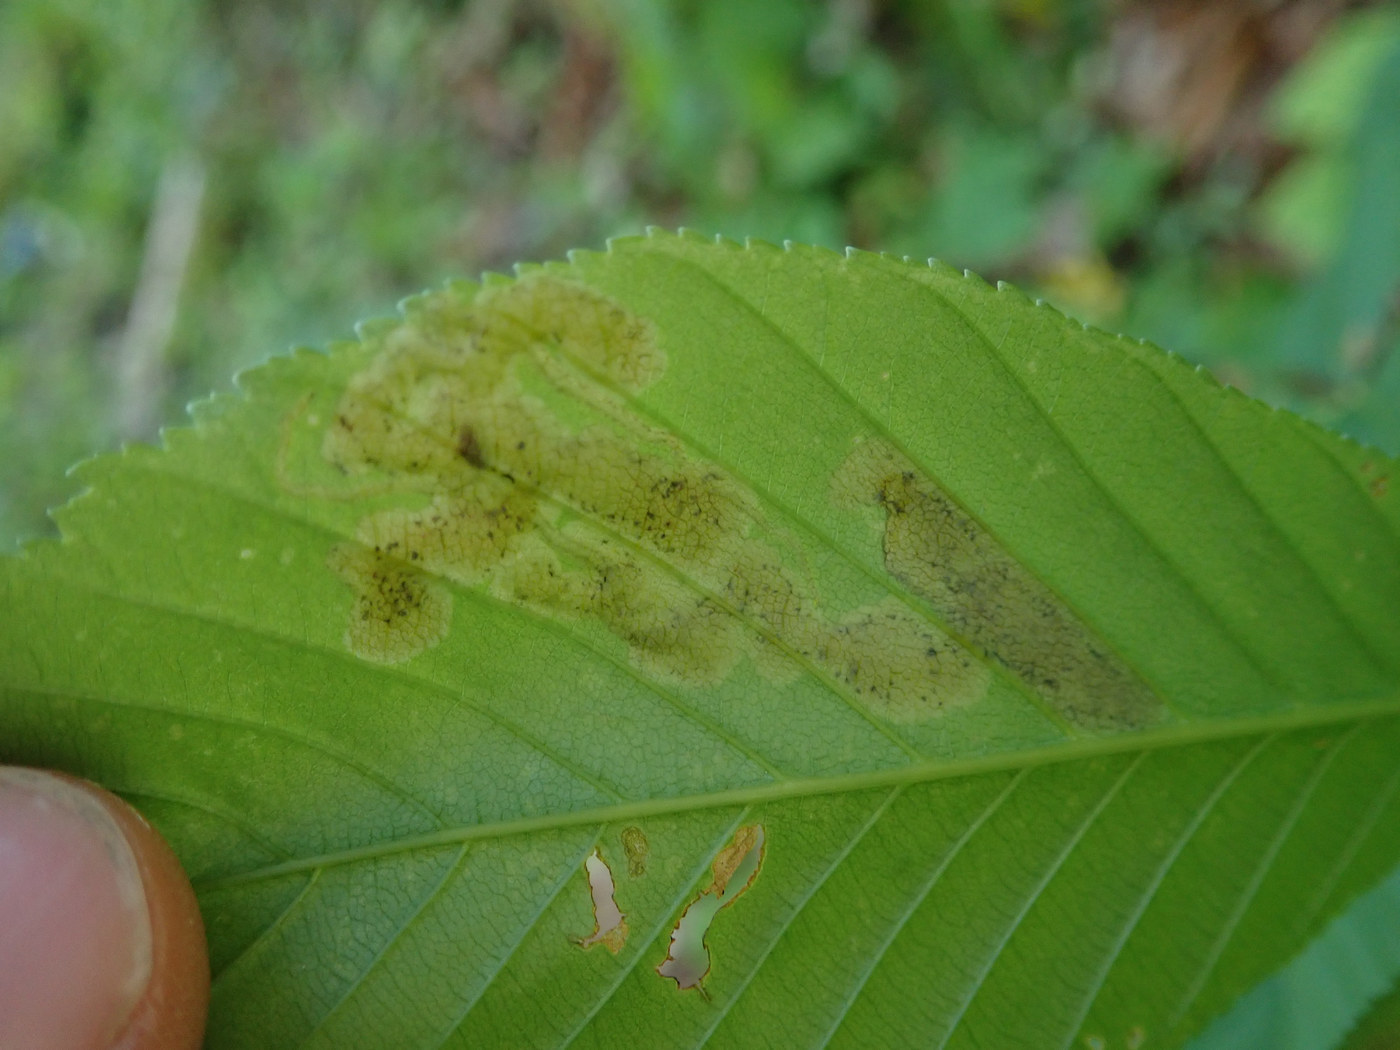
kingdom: Animalia
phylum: Arthropoda
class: Insecta
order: Diptera
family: Agromyzidae
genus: Phytomyza
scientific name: Phytomyza aesculi
